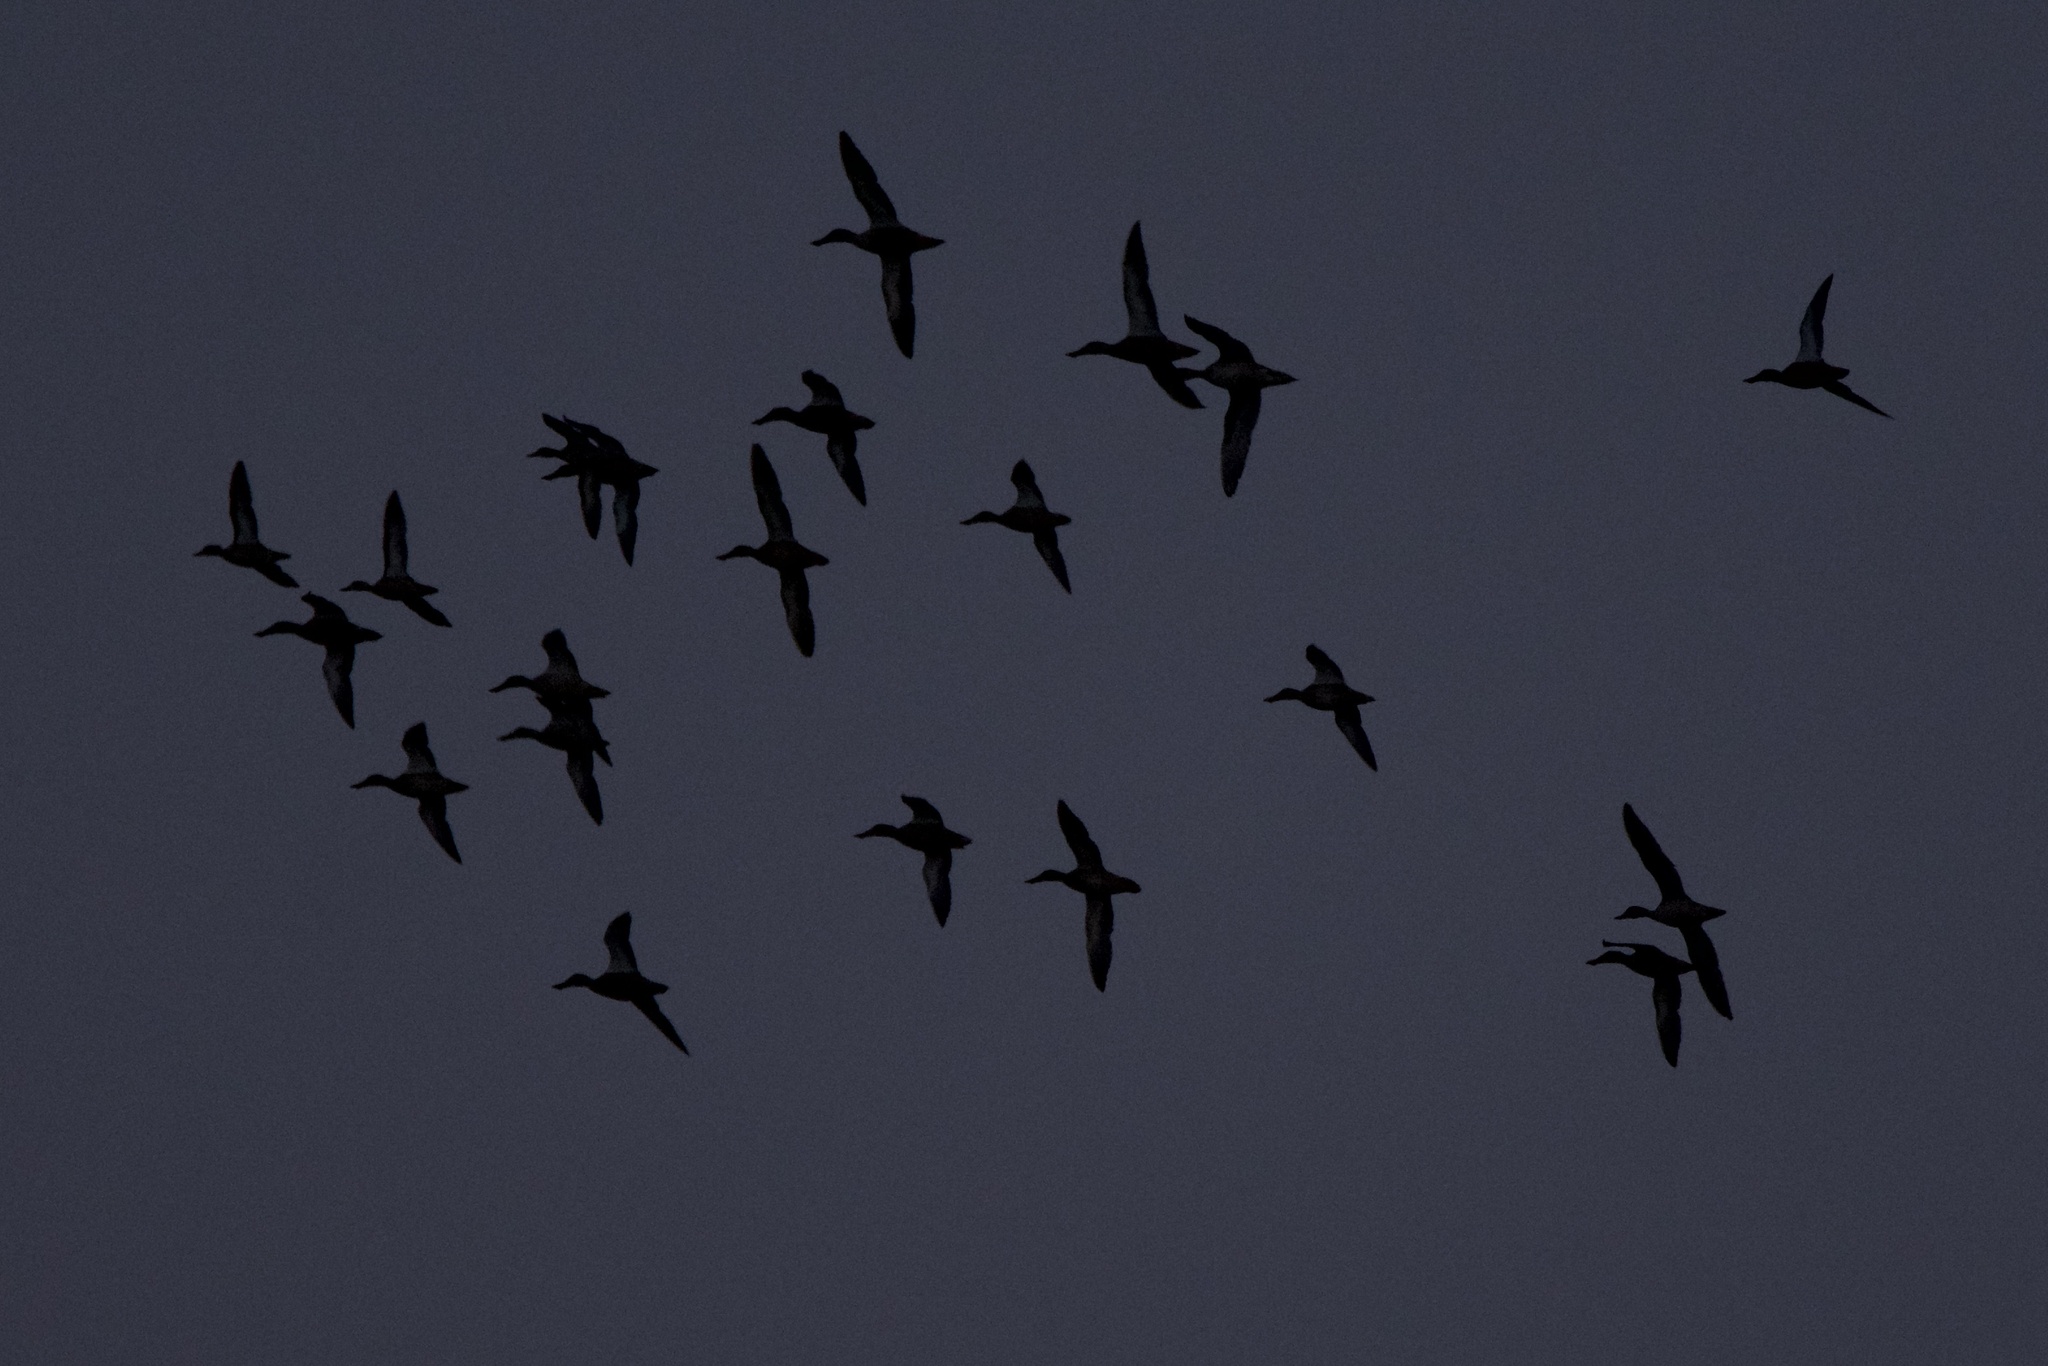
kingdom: Animalia
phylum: Chordata
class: Aves
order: Anseriformes
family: Anatidae
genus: Spatula
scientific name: Spatula clypeata
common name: Northern shoveler
